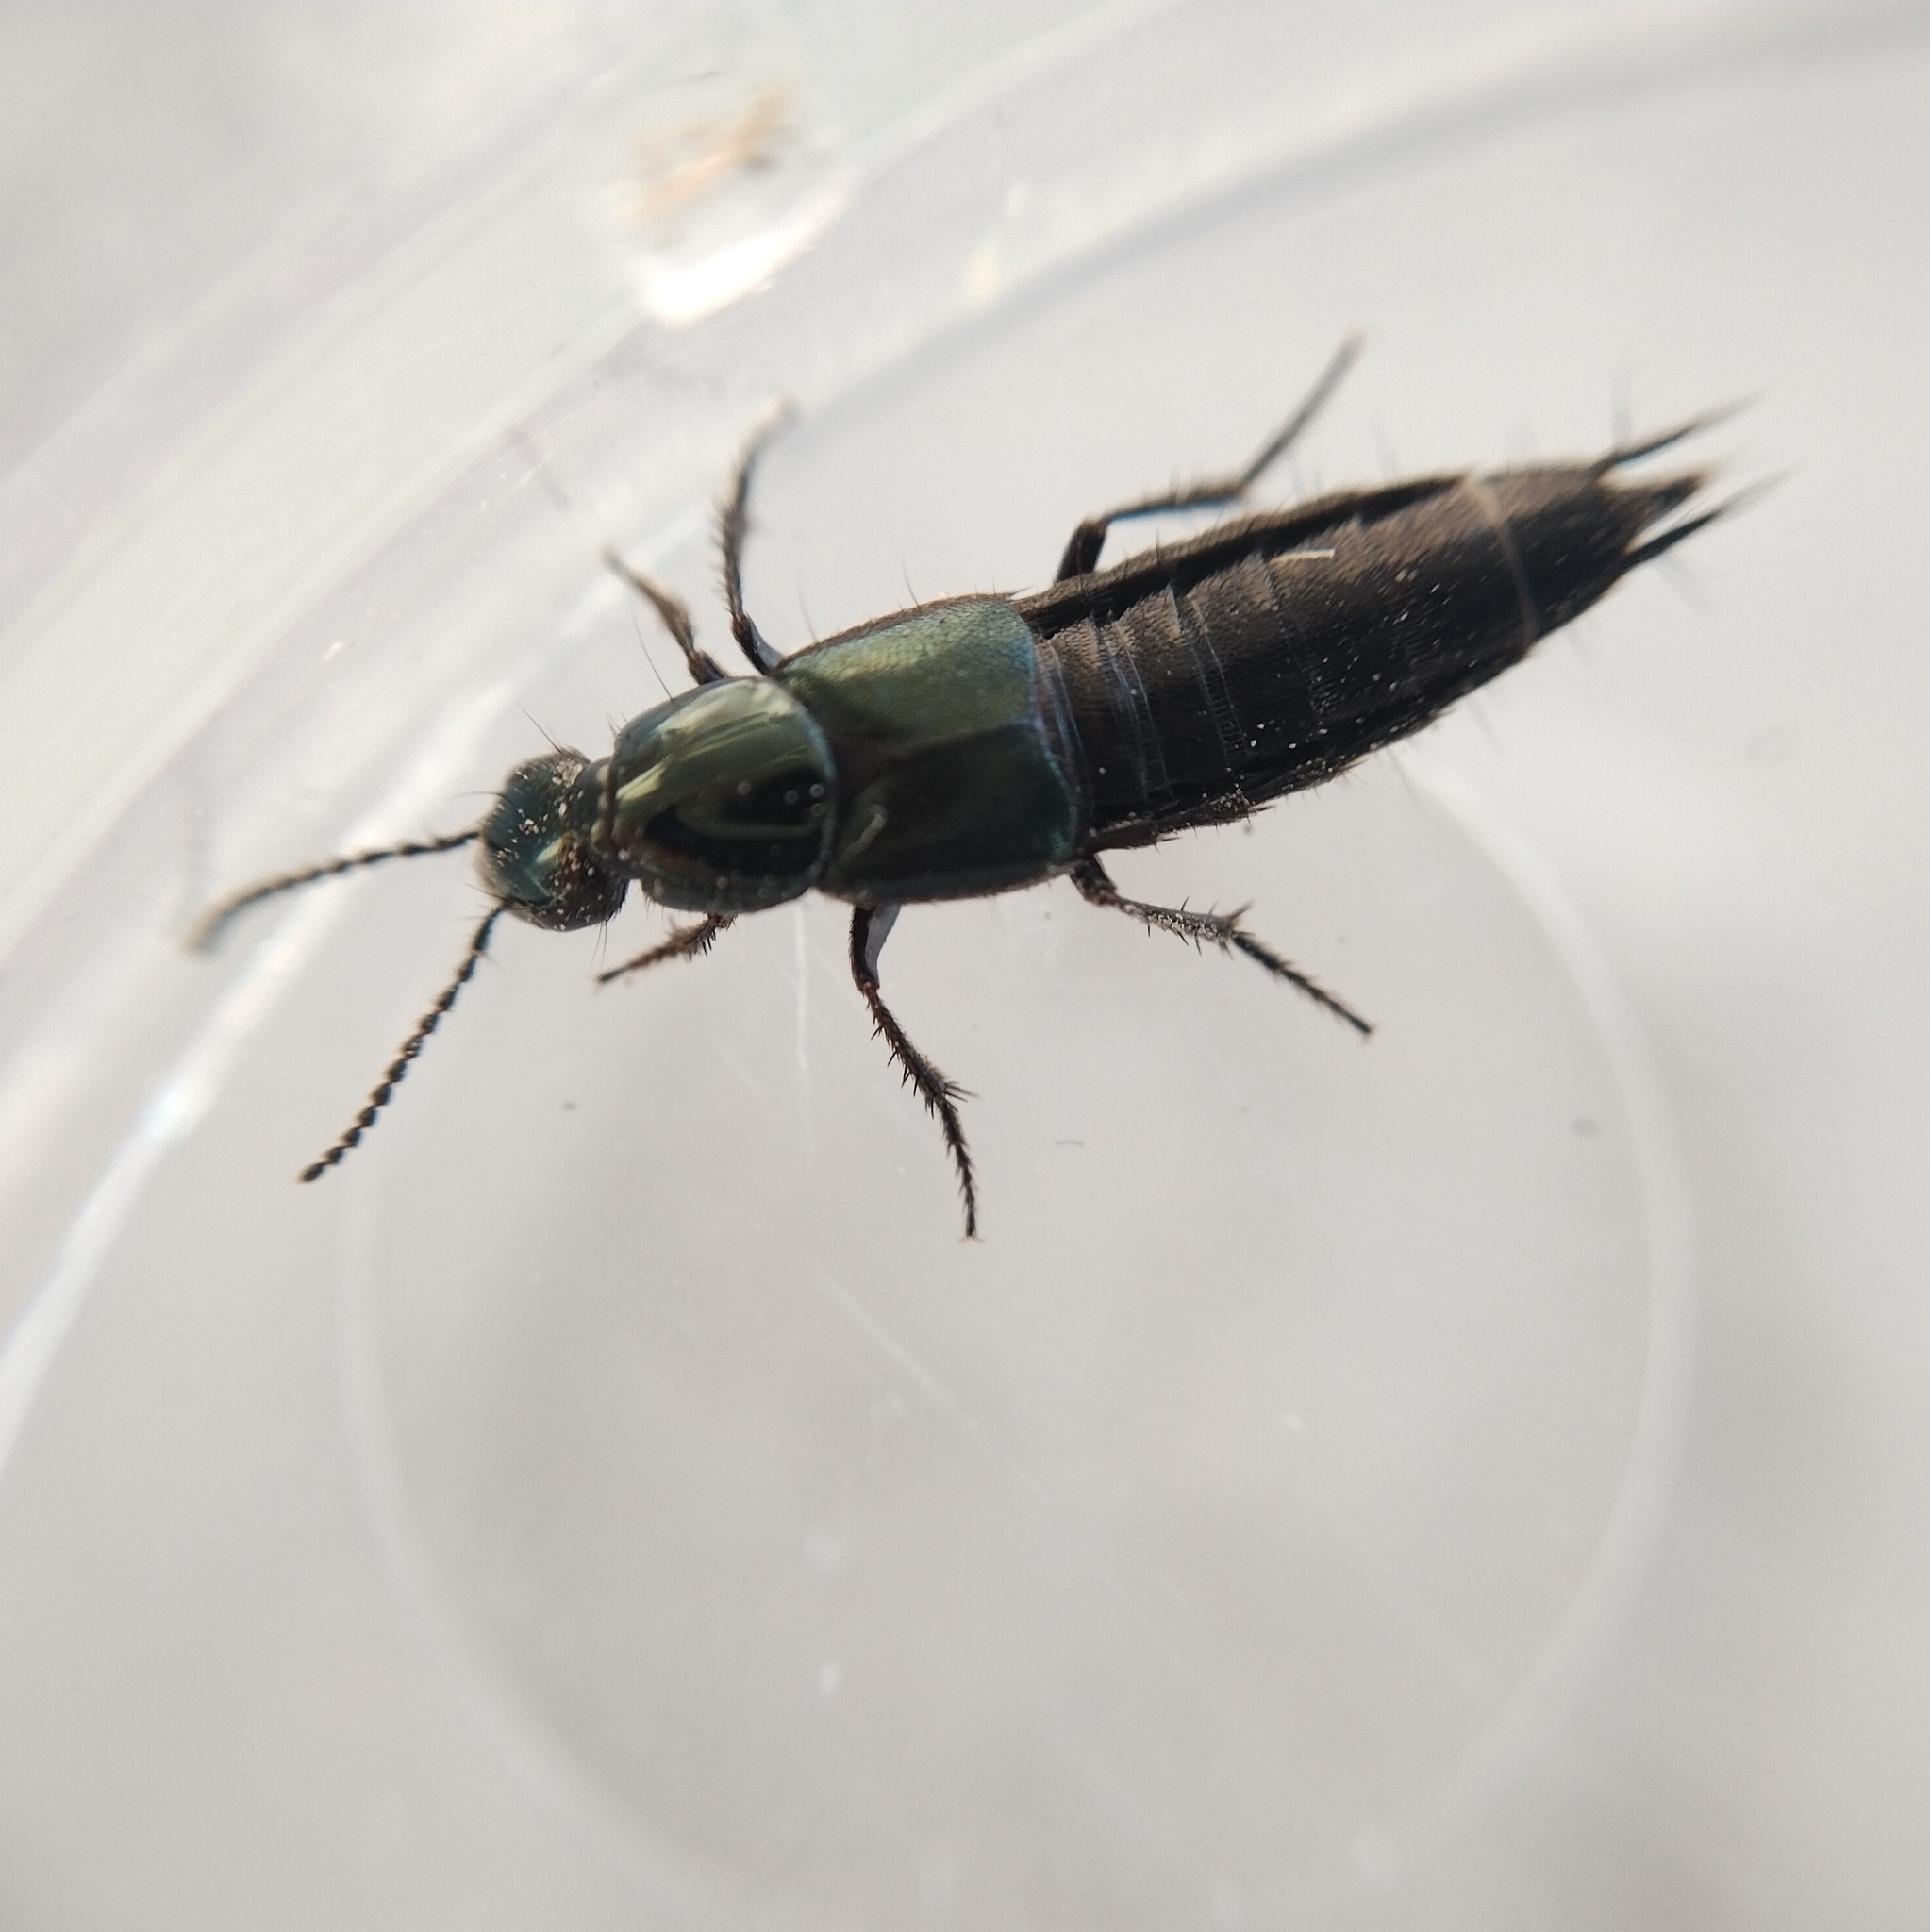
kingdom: Animalia
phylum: Arthropoda
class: Insecta
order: Coleoptera
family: Staphylinidae
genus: Philonthus
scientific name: Philonthus laminatus
